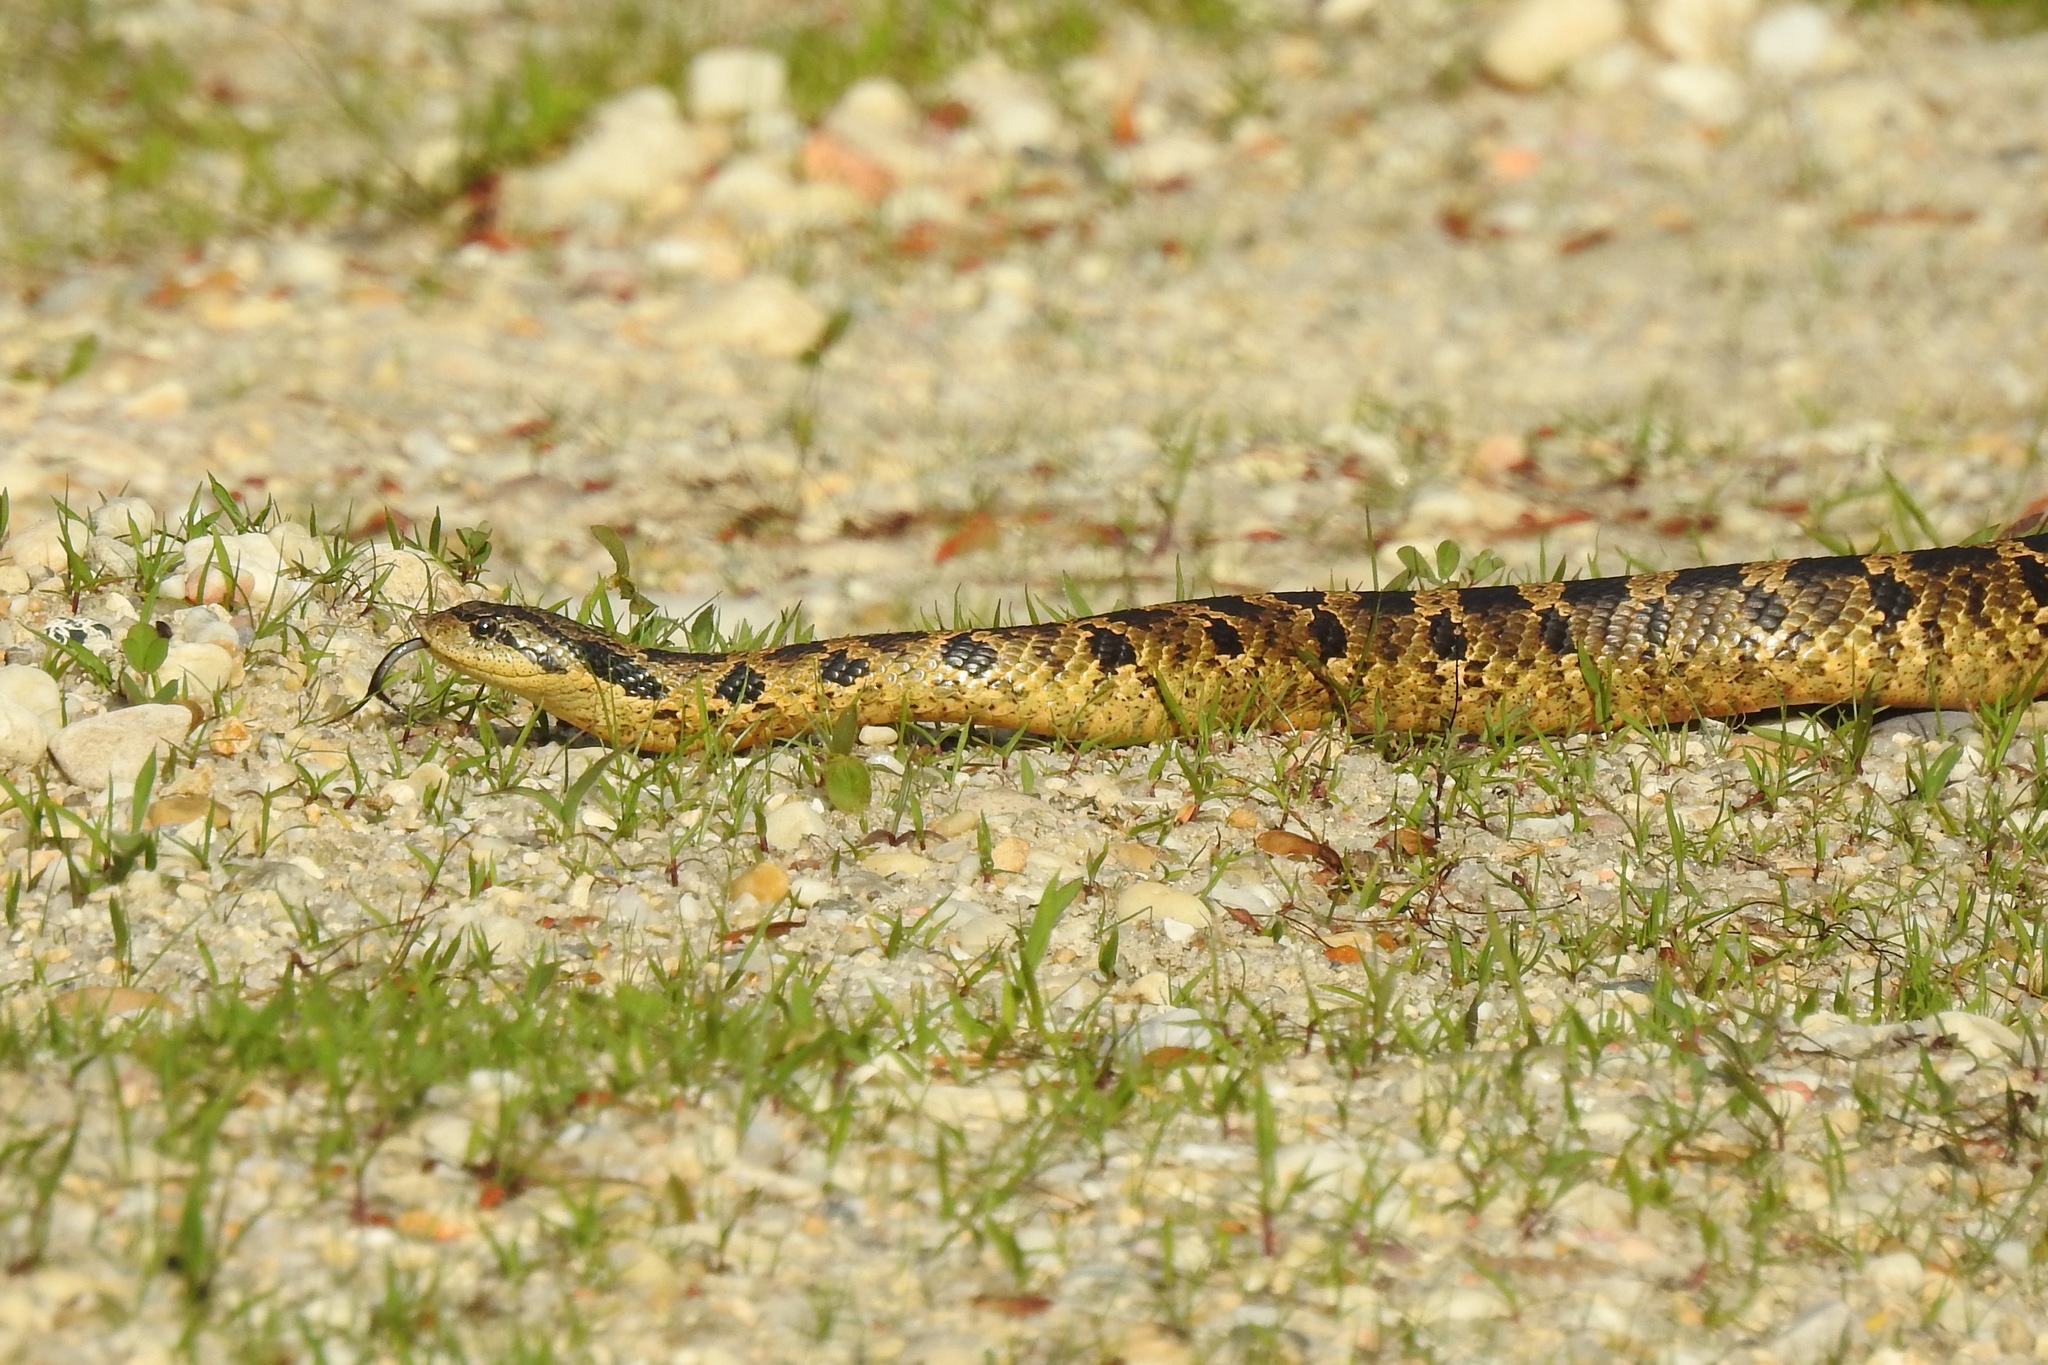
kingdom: Animalia
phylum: Chordata
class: Squamata
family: Colubridae
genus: Heterodon
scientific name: Heterodon platirhinos
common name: Eastern hognose snake
